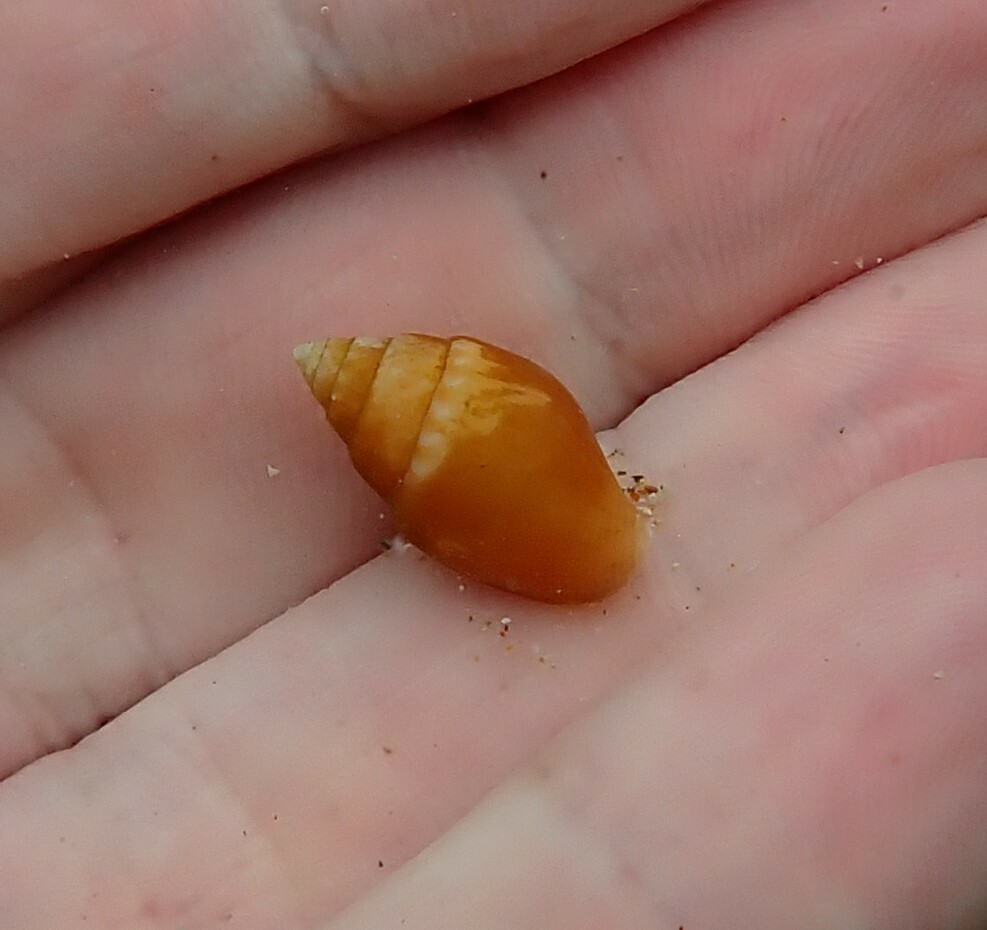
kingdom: Animalia
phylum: Mollusca
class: Gastropoda
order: Neogastropoda
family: Columbellidae
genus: Pardalinops de
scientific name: Pardalinops de Pardalinops testudinaria
